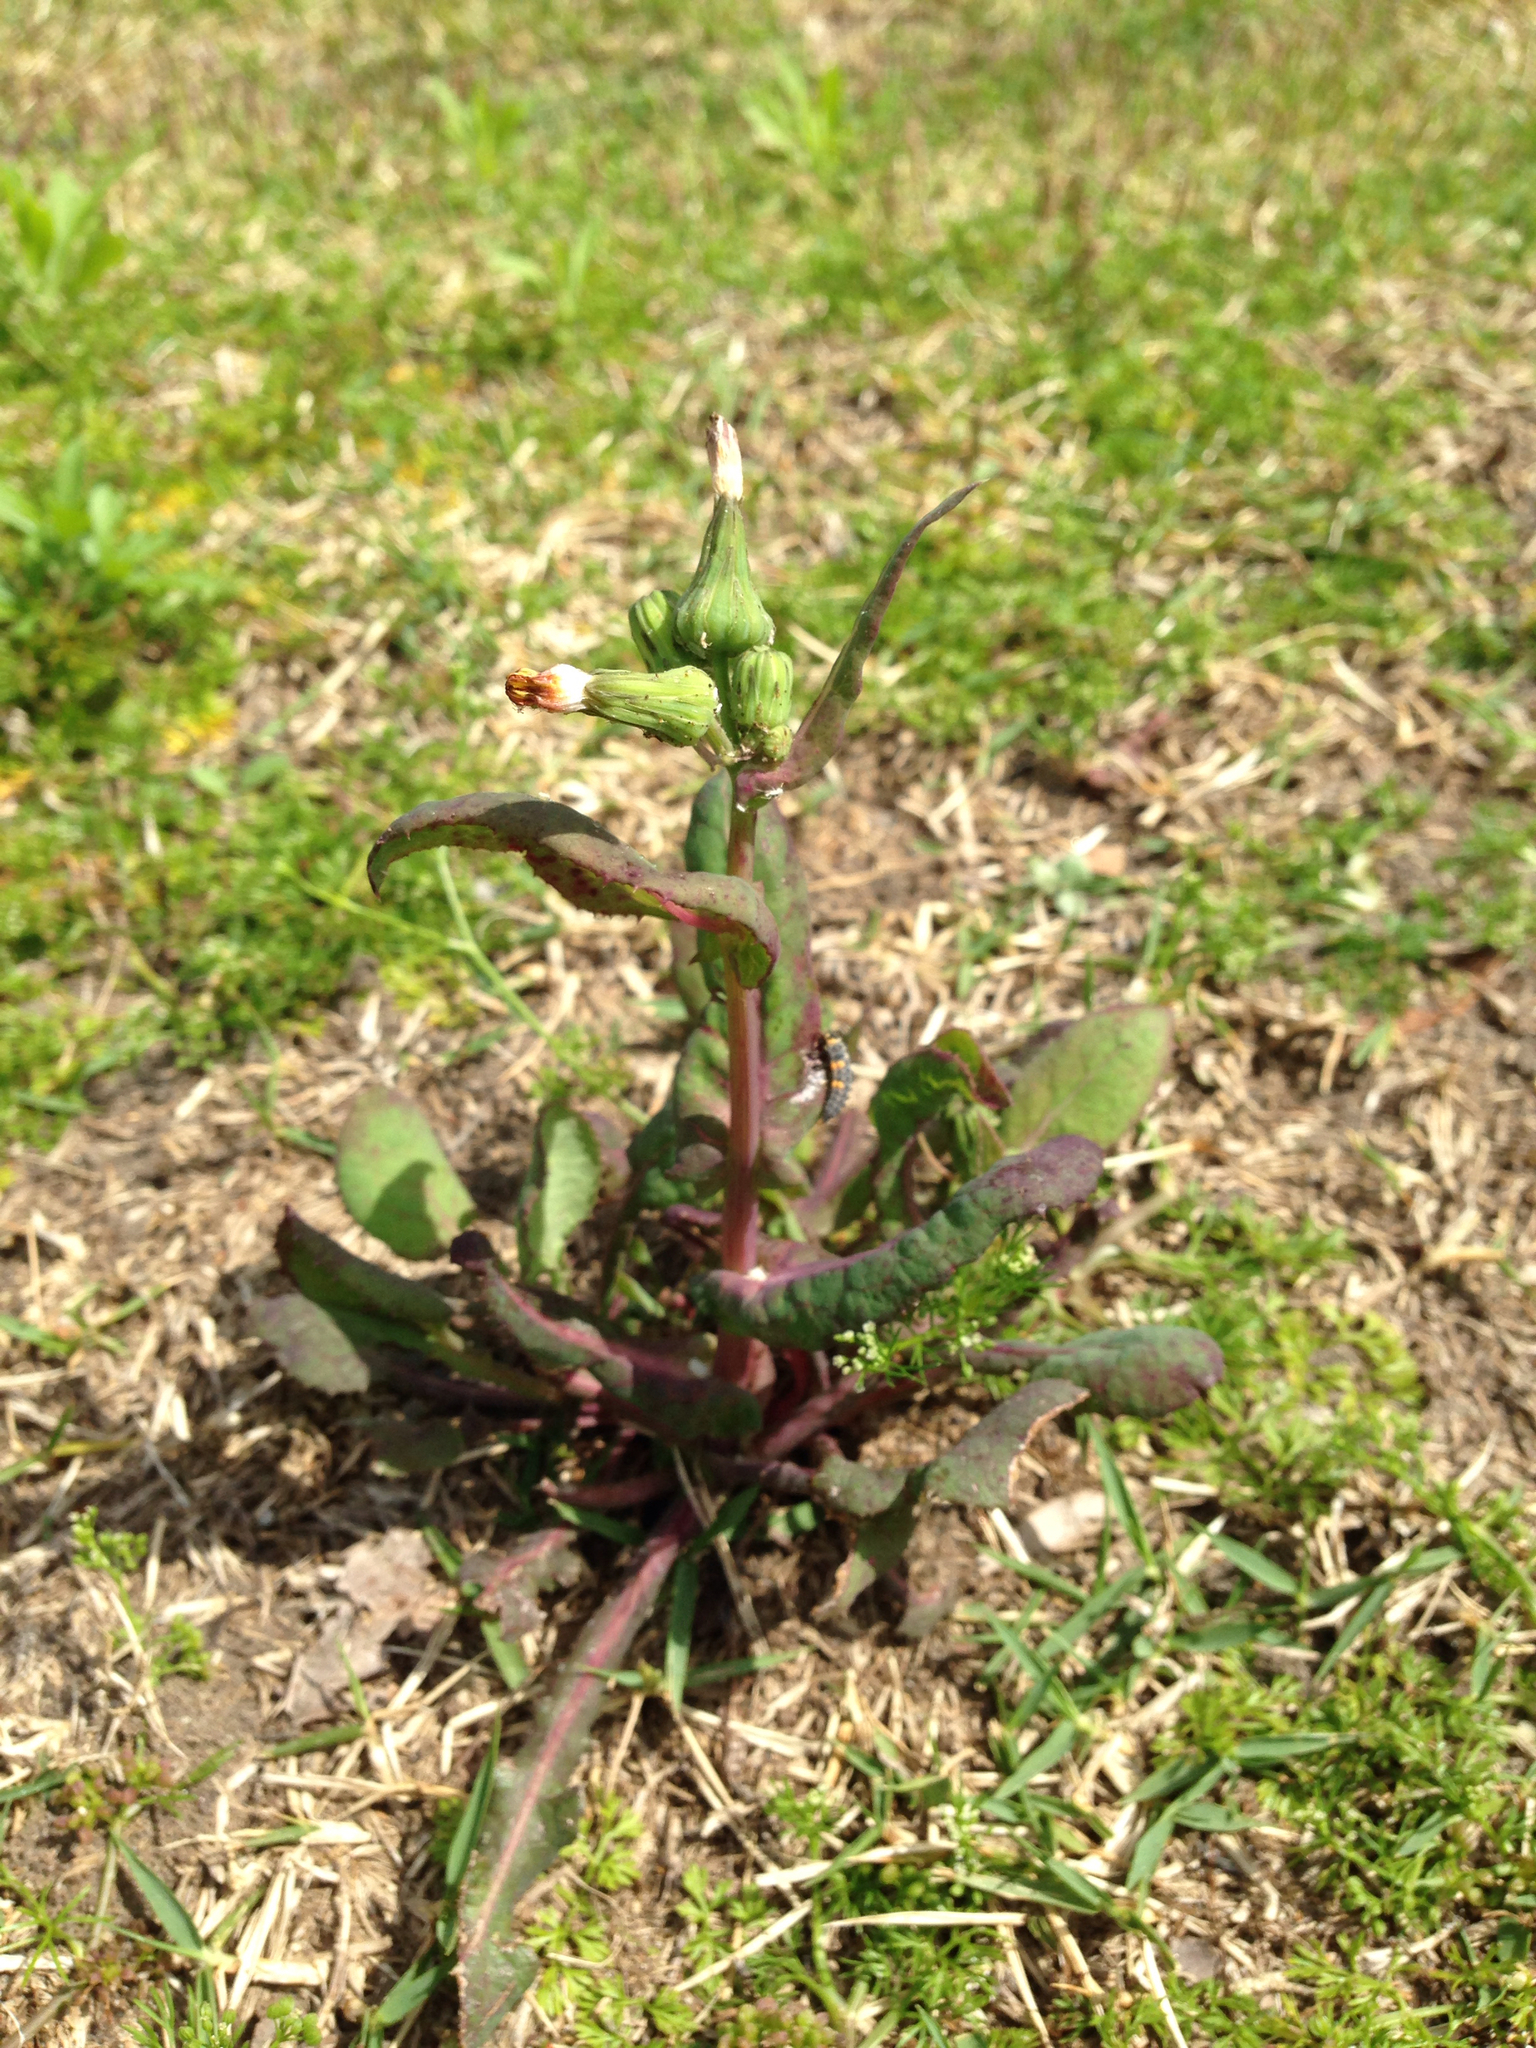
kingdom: Plantae
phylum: Tracheophyta
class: Magnoliopsida
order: Asterales
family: Asteraceae
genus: Sonchus
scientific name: Sonchus oleraceus
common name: Common sowthistle
